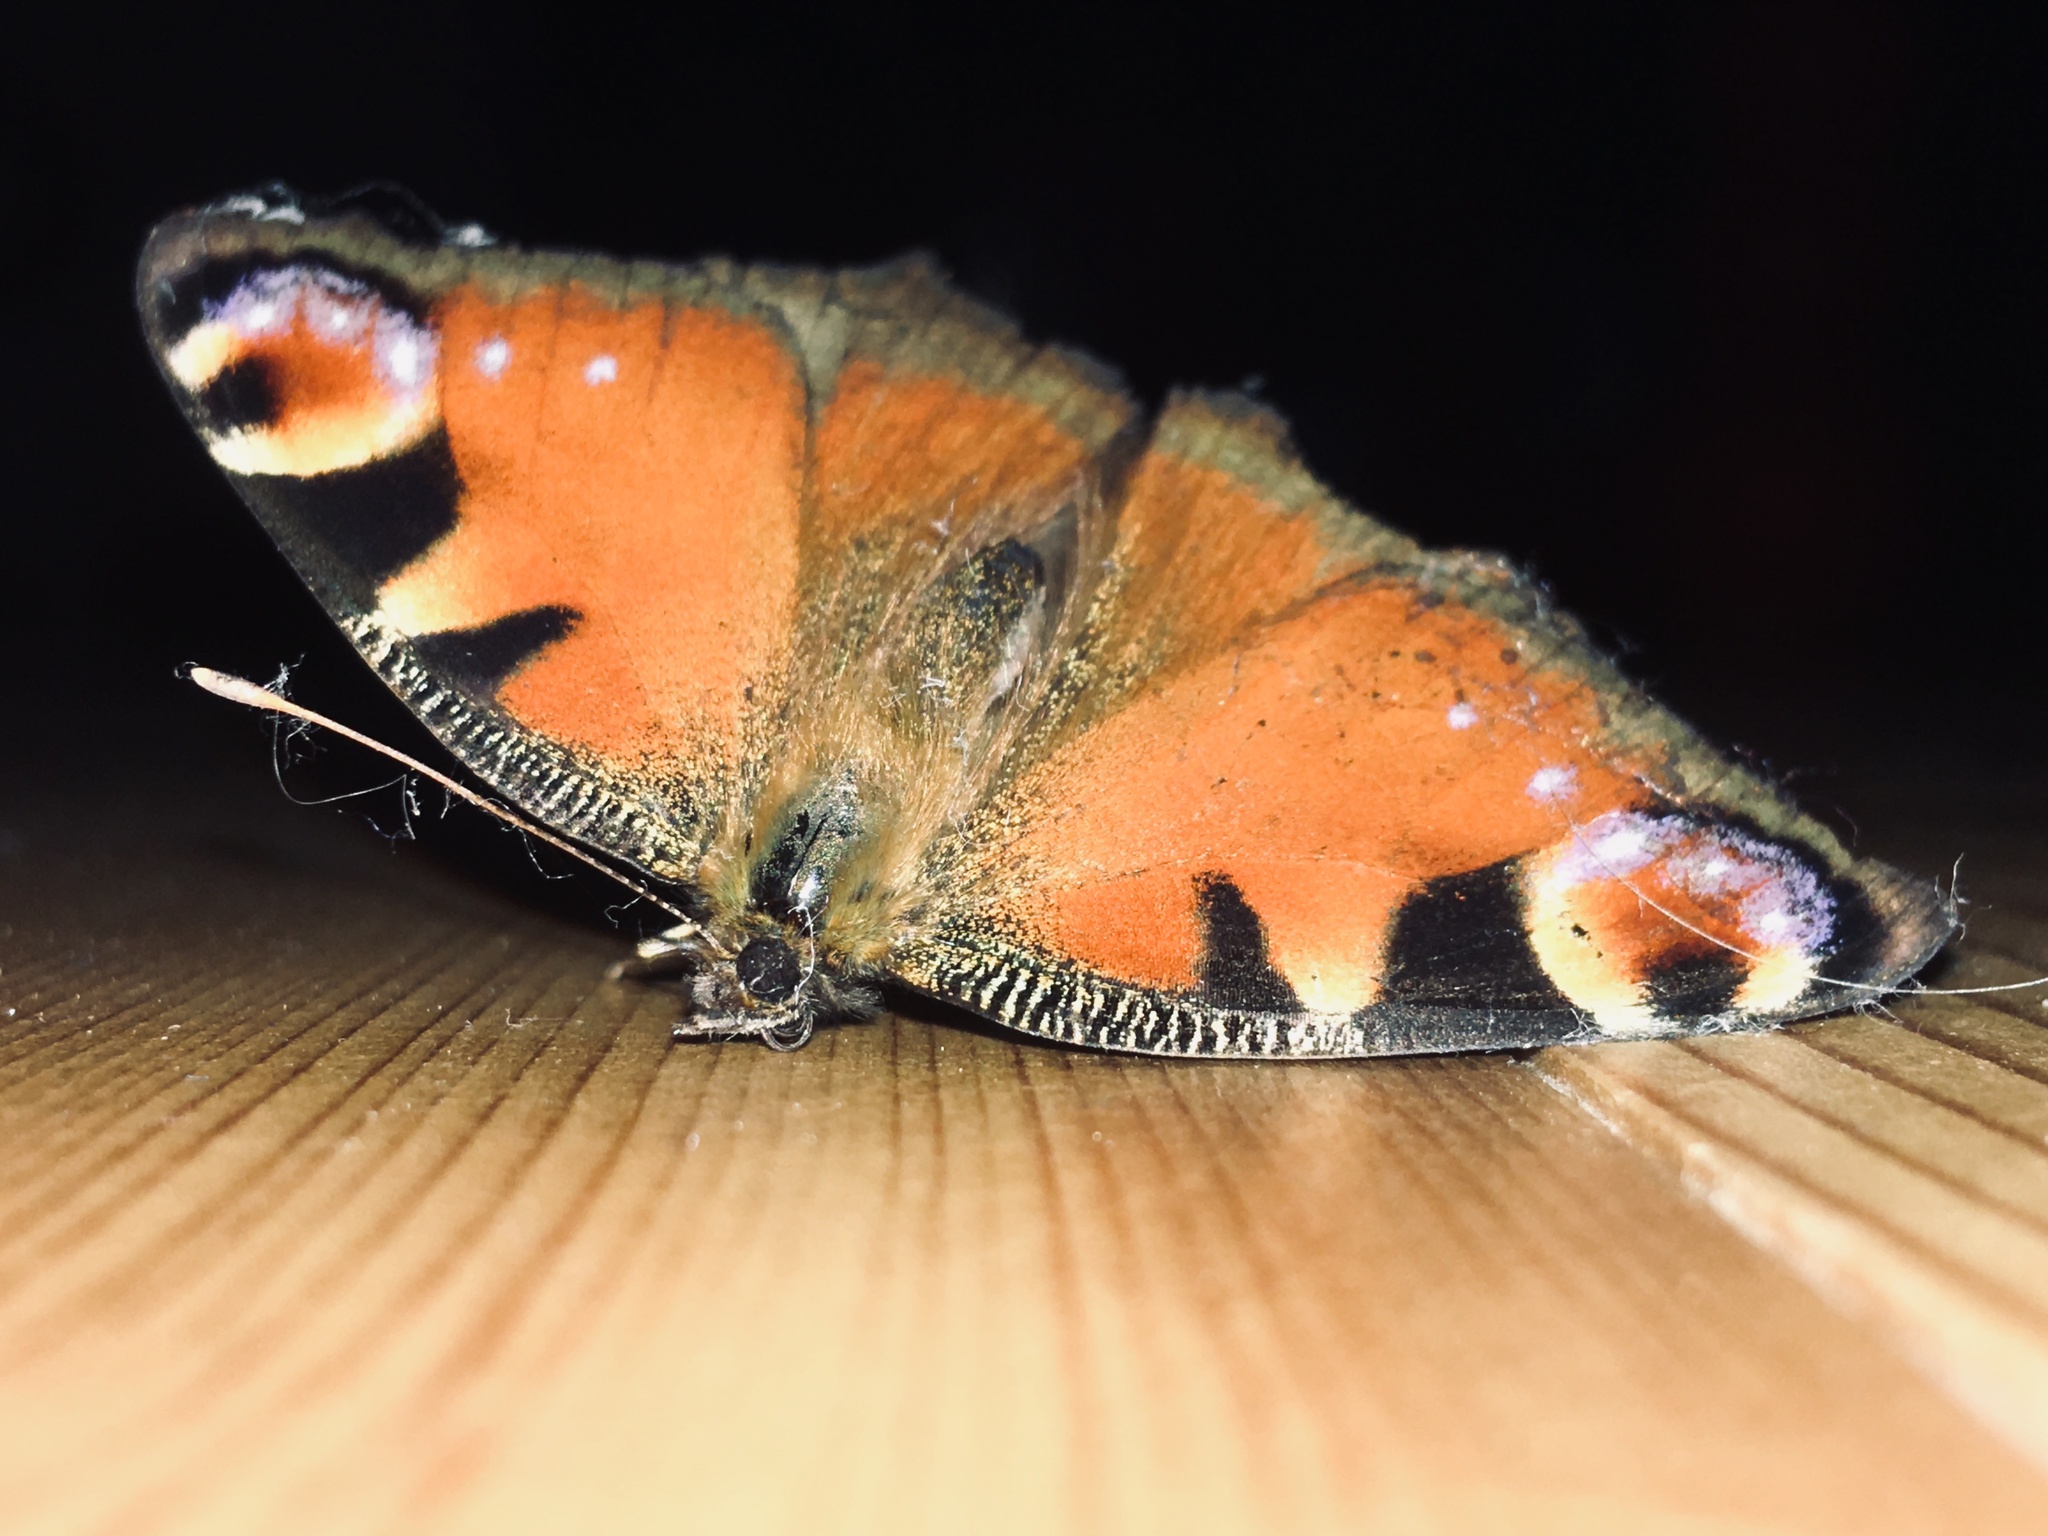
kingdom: Animalia
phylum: Arthropoda
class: Insecta
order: Lepidoptera
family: Nymphalidae
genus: Aglais
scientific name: Aglais io
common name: Peacock
